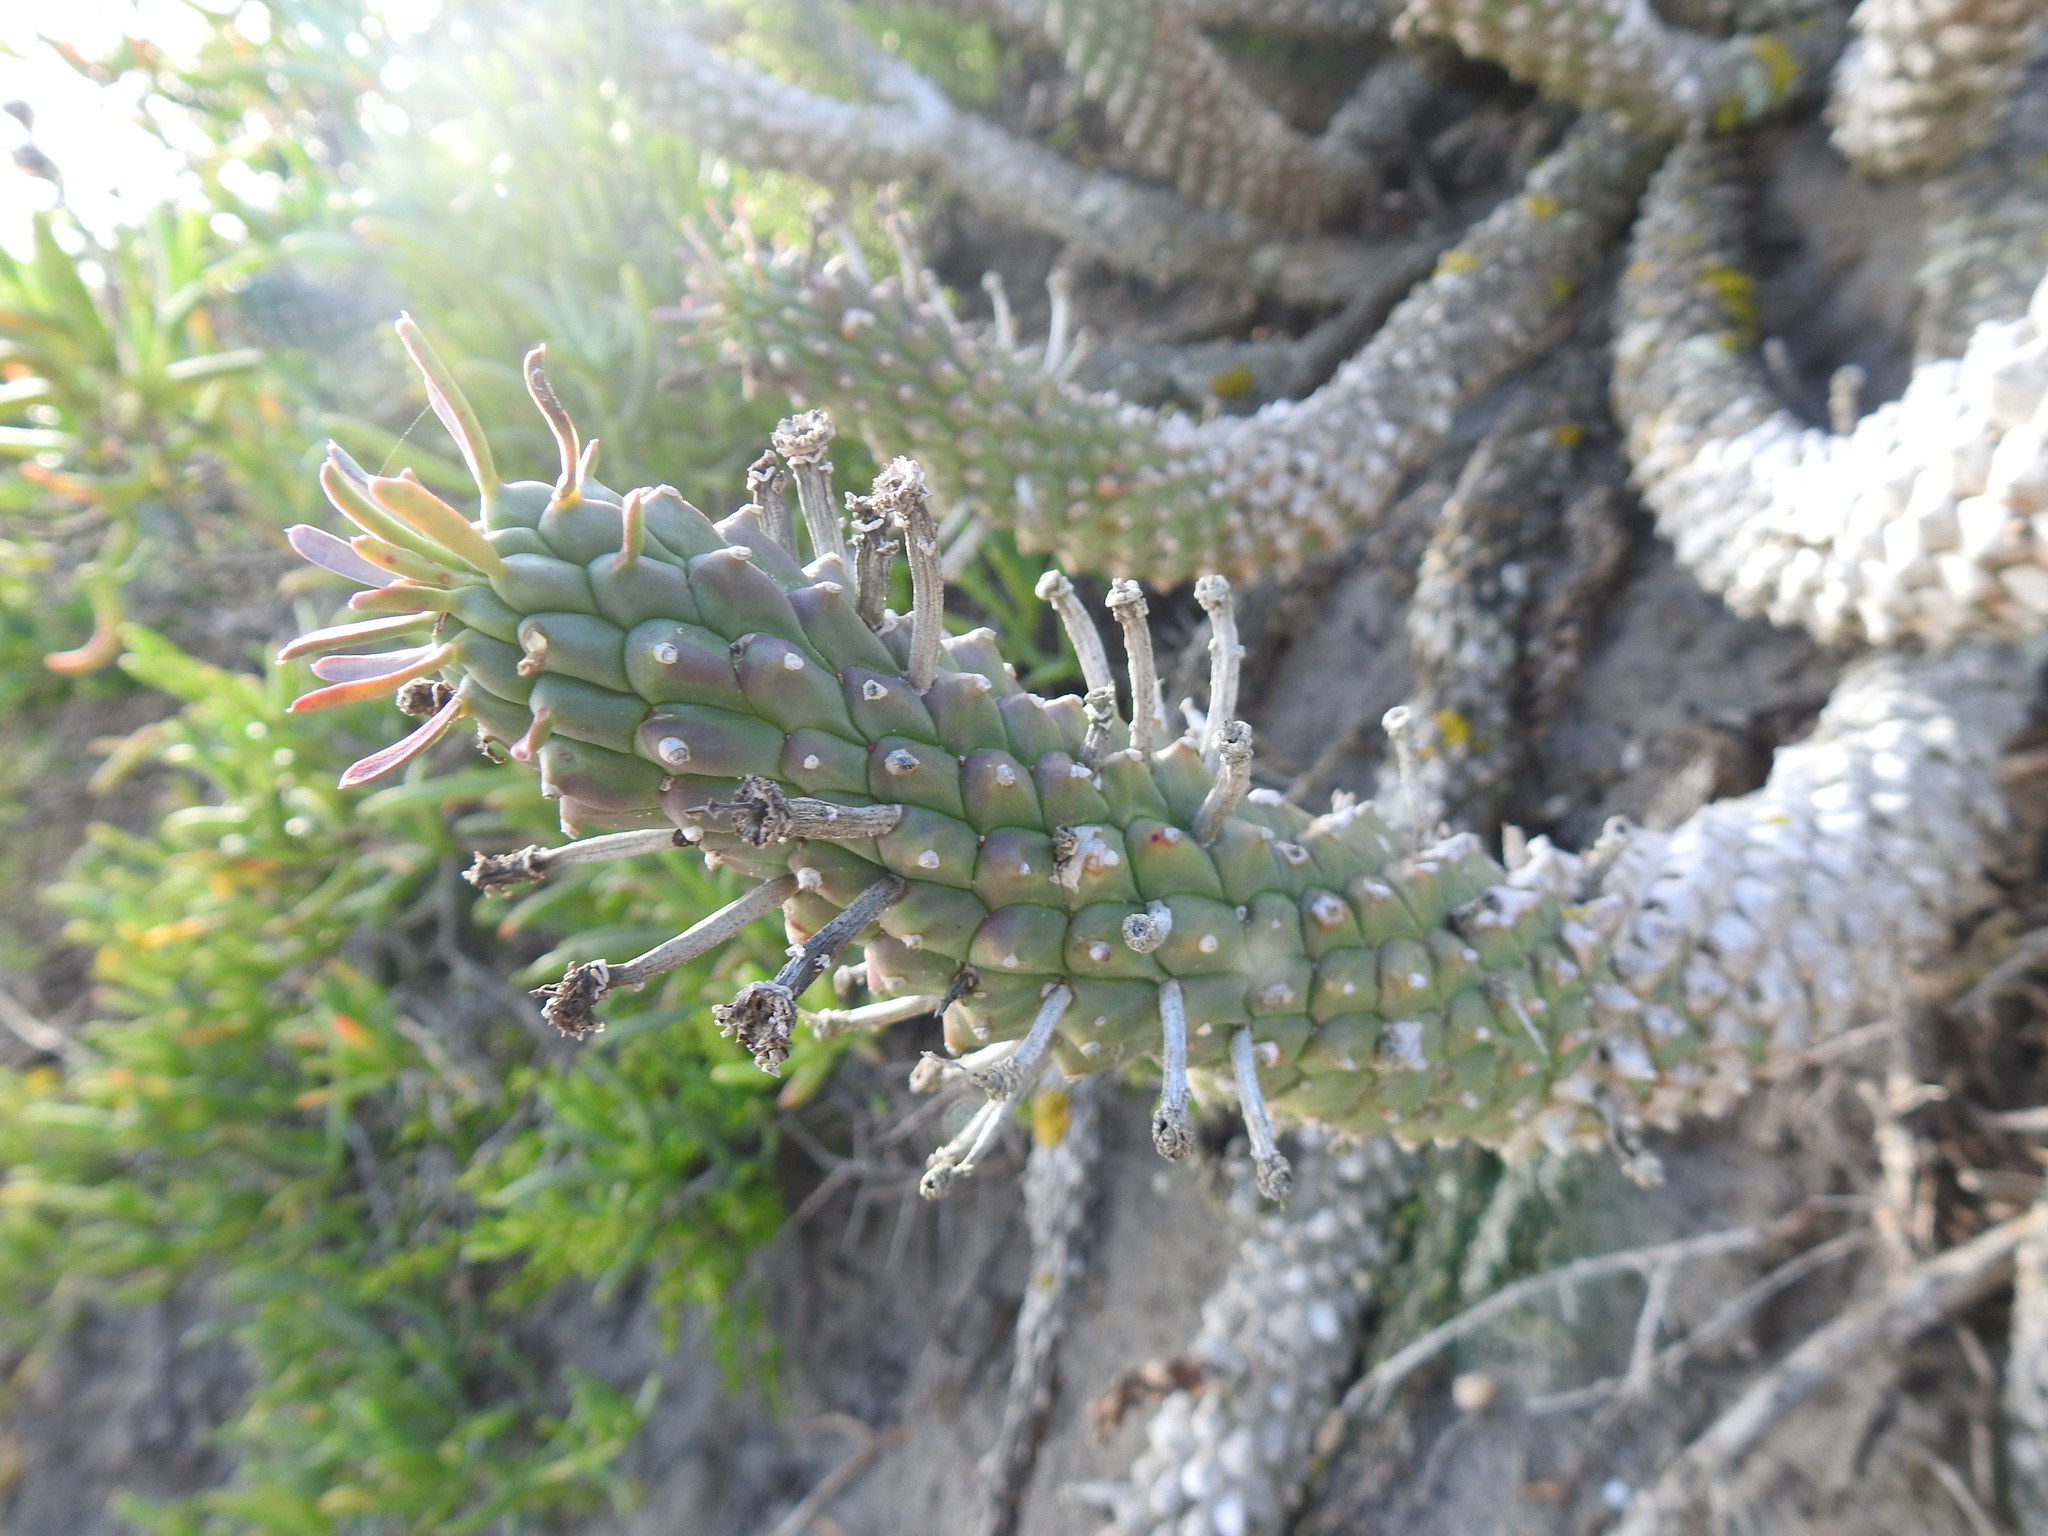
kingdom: Plantae
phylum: Tracheophyta
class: Magnoliopsida
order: Malpighiales
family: Euphorbiaceae
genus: Euphorbia
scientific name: Euphorbia caput-medusae
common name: Medusa's-head
